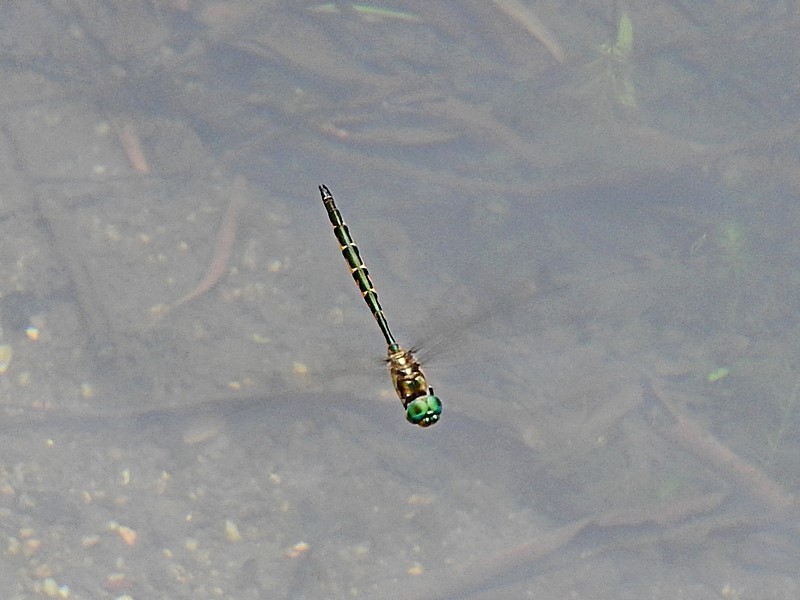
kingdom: Animalia
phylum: Arthropoda
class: Insecta
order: Odonata
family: Corduliidae
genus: Hemicordulia
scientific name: Hemicordulia australiae
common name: Sentry dragonfly
